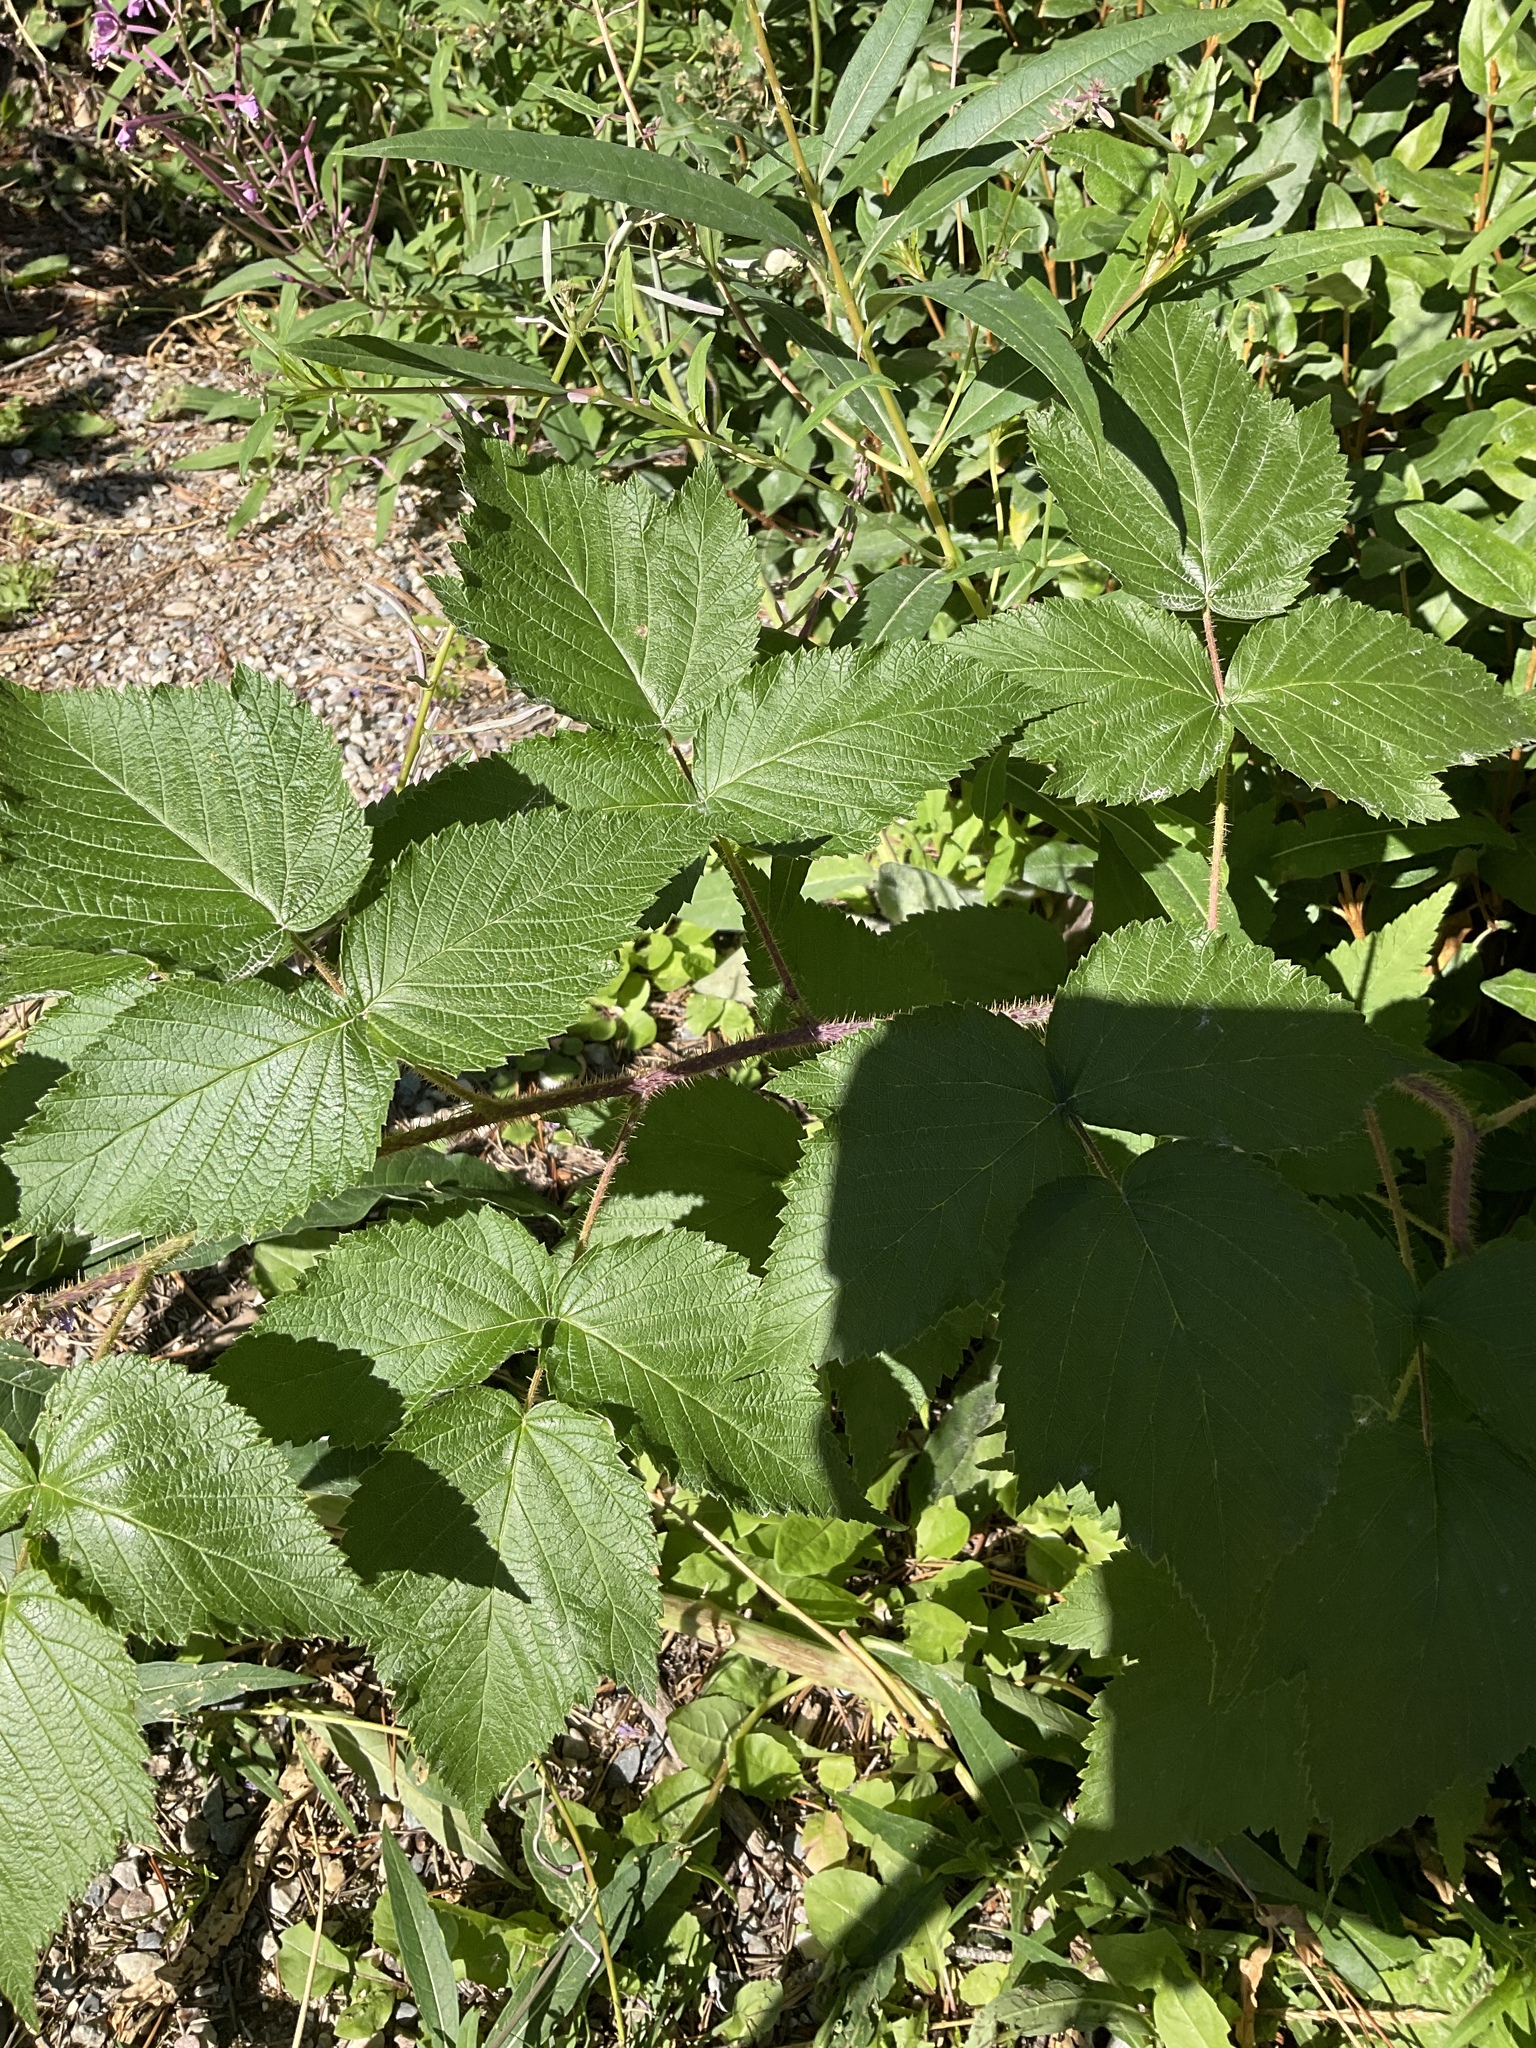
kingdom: Plantae
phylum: Tracheophyta
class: Magnoliopsida
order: Rosales
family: Rosaceae
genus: Rubus
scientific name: Rubus idaeus
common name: Raspberry
